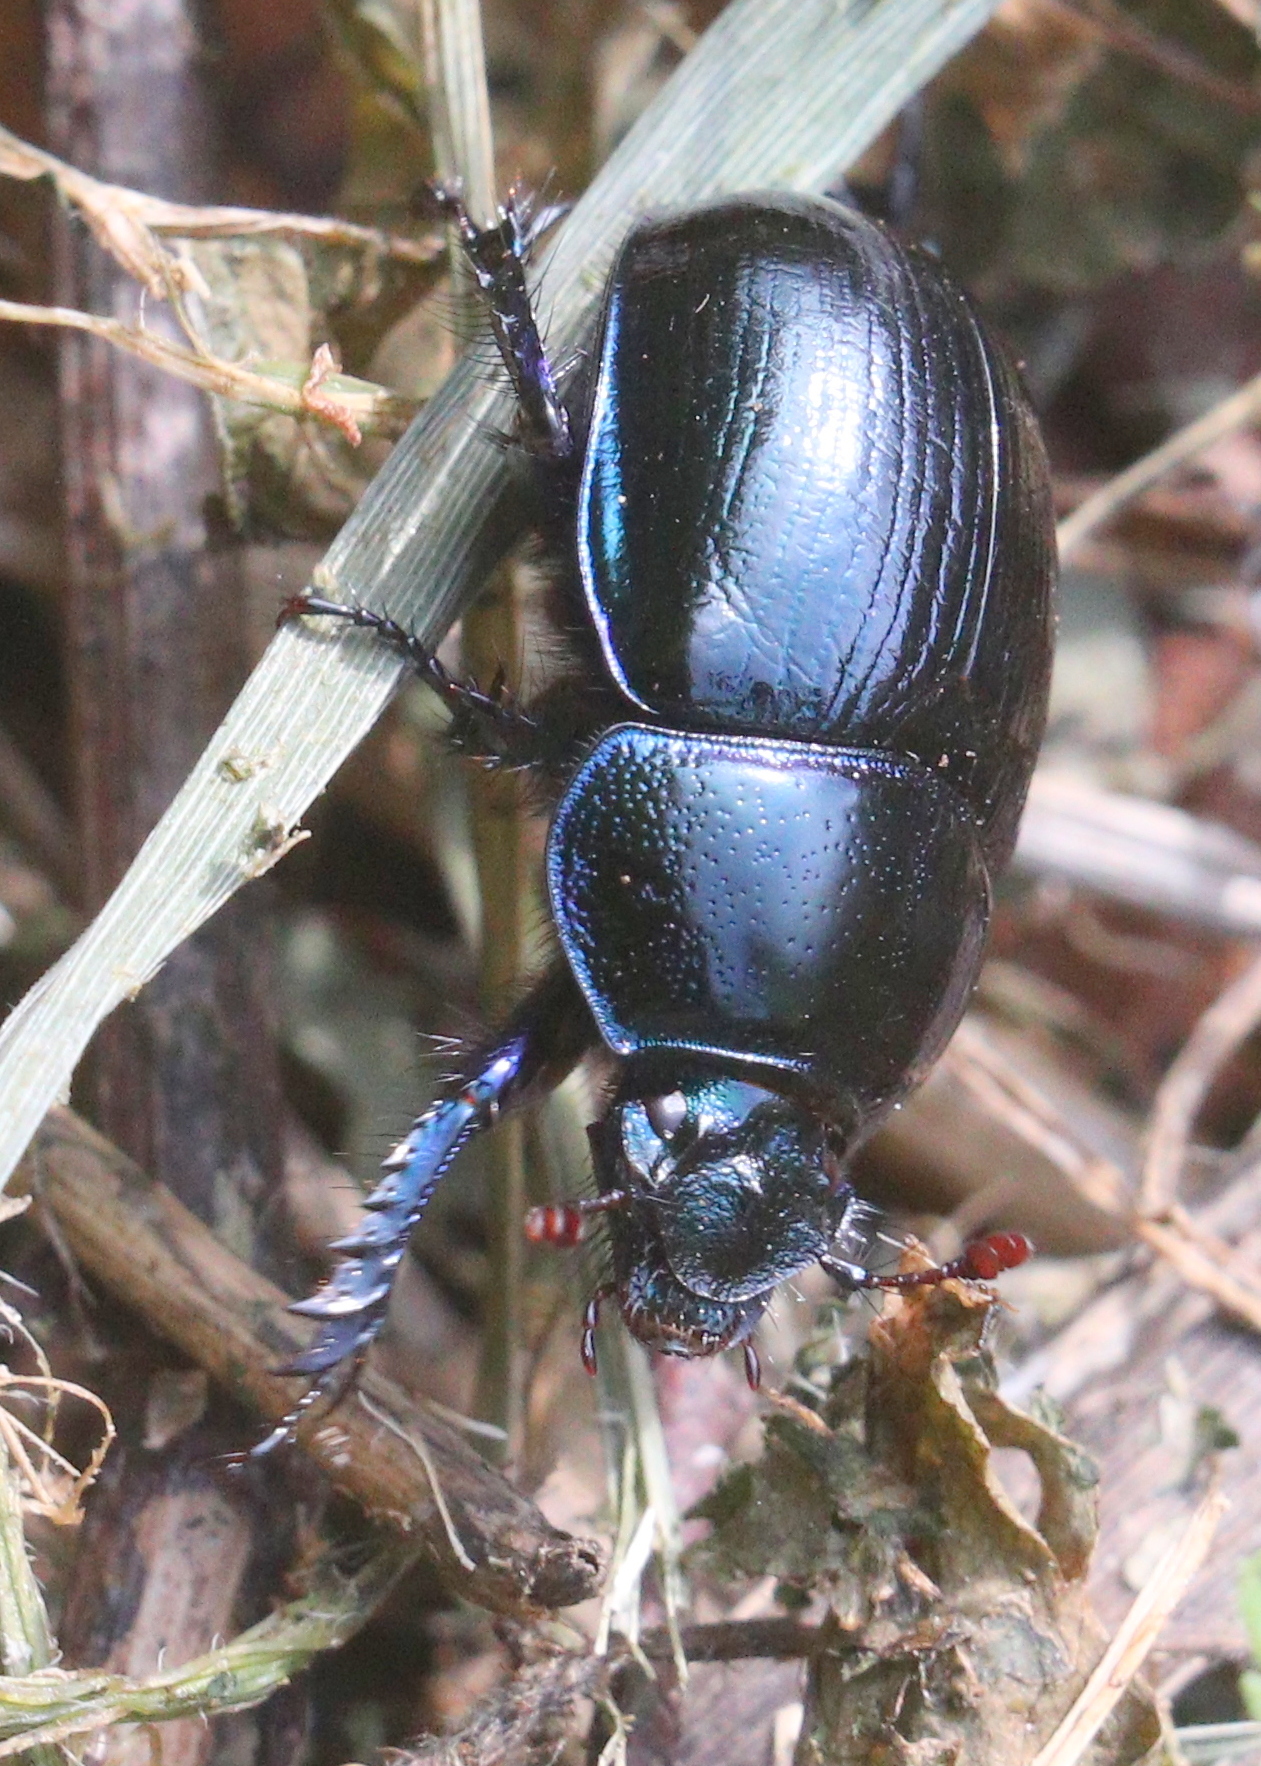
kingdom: Animalia
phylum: Arthropoda
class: Insecta
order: Coleoptera
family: Geotrupidae
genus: Anoplotrupes
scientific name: Anoplotrupes stercorosus
